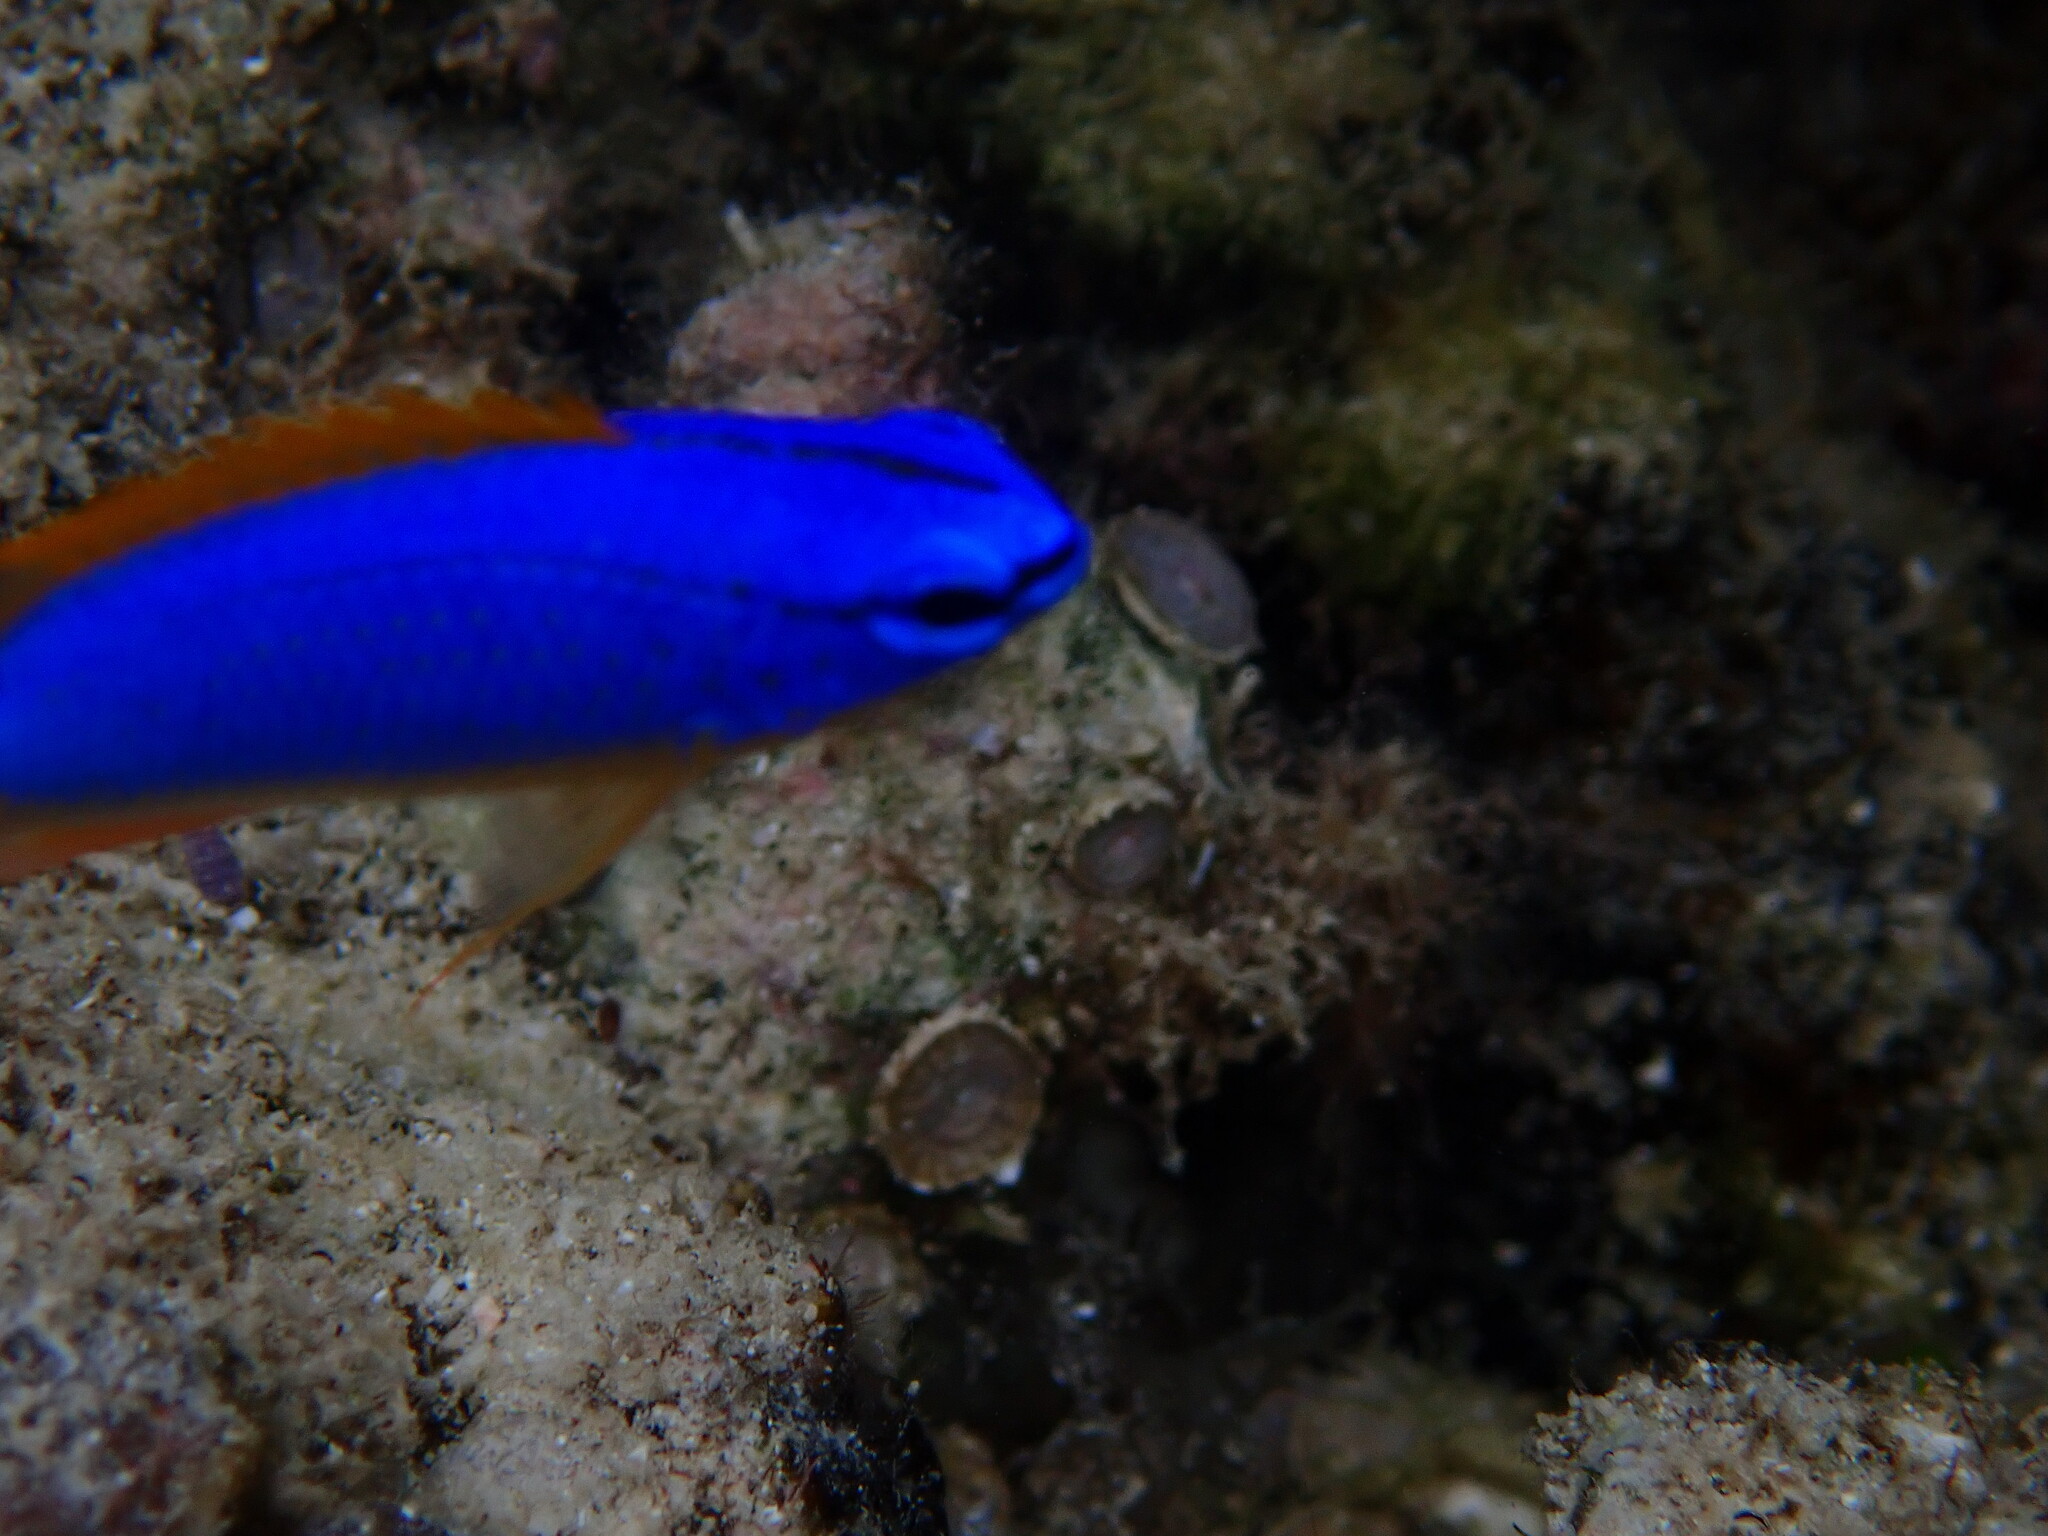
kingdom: Animalia
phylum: Chordata
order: Perciformes
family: Pomacentridae
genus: Chrysiptera
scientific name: Chrysiptera taupou
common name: Fiji damsel
